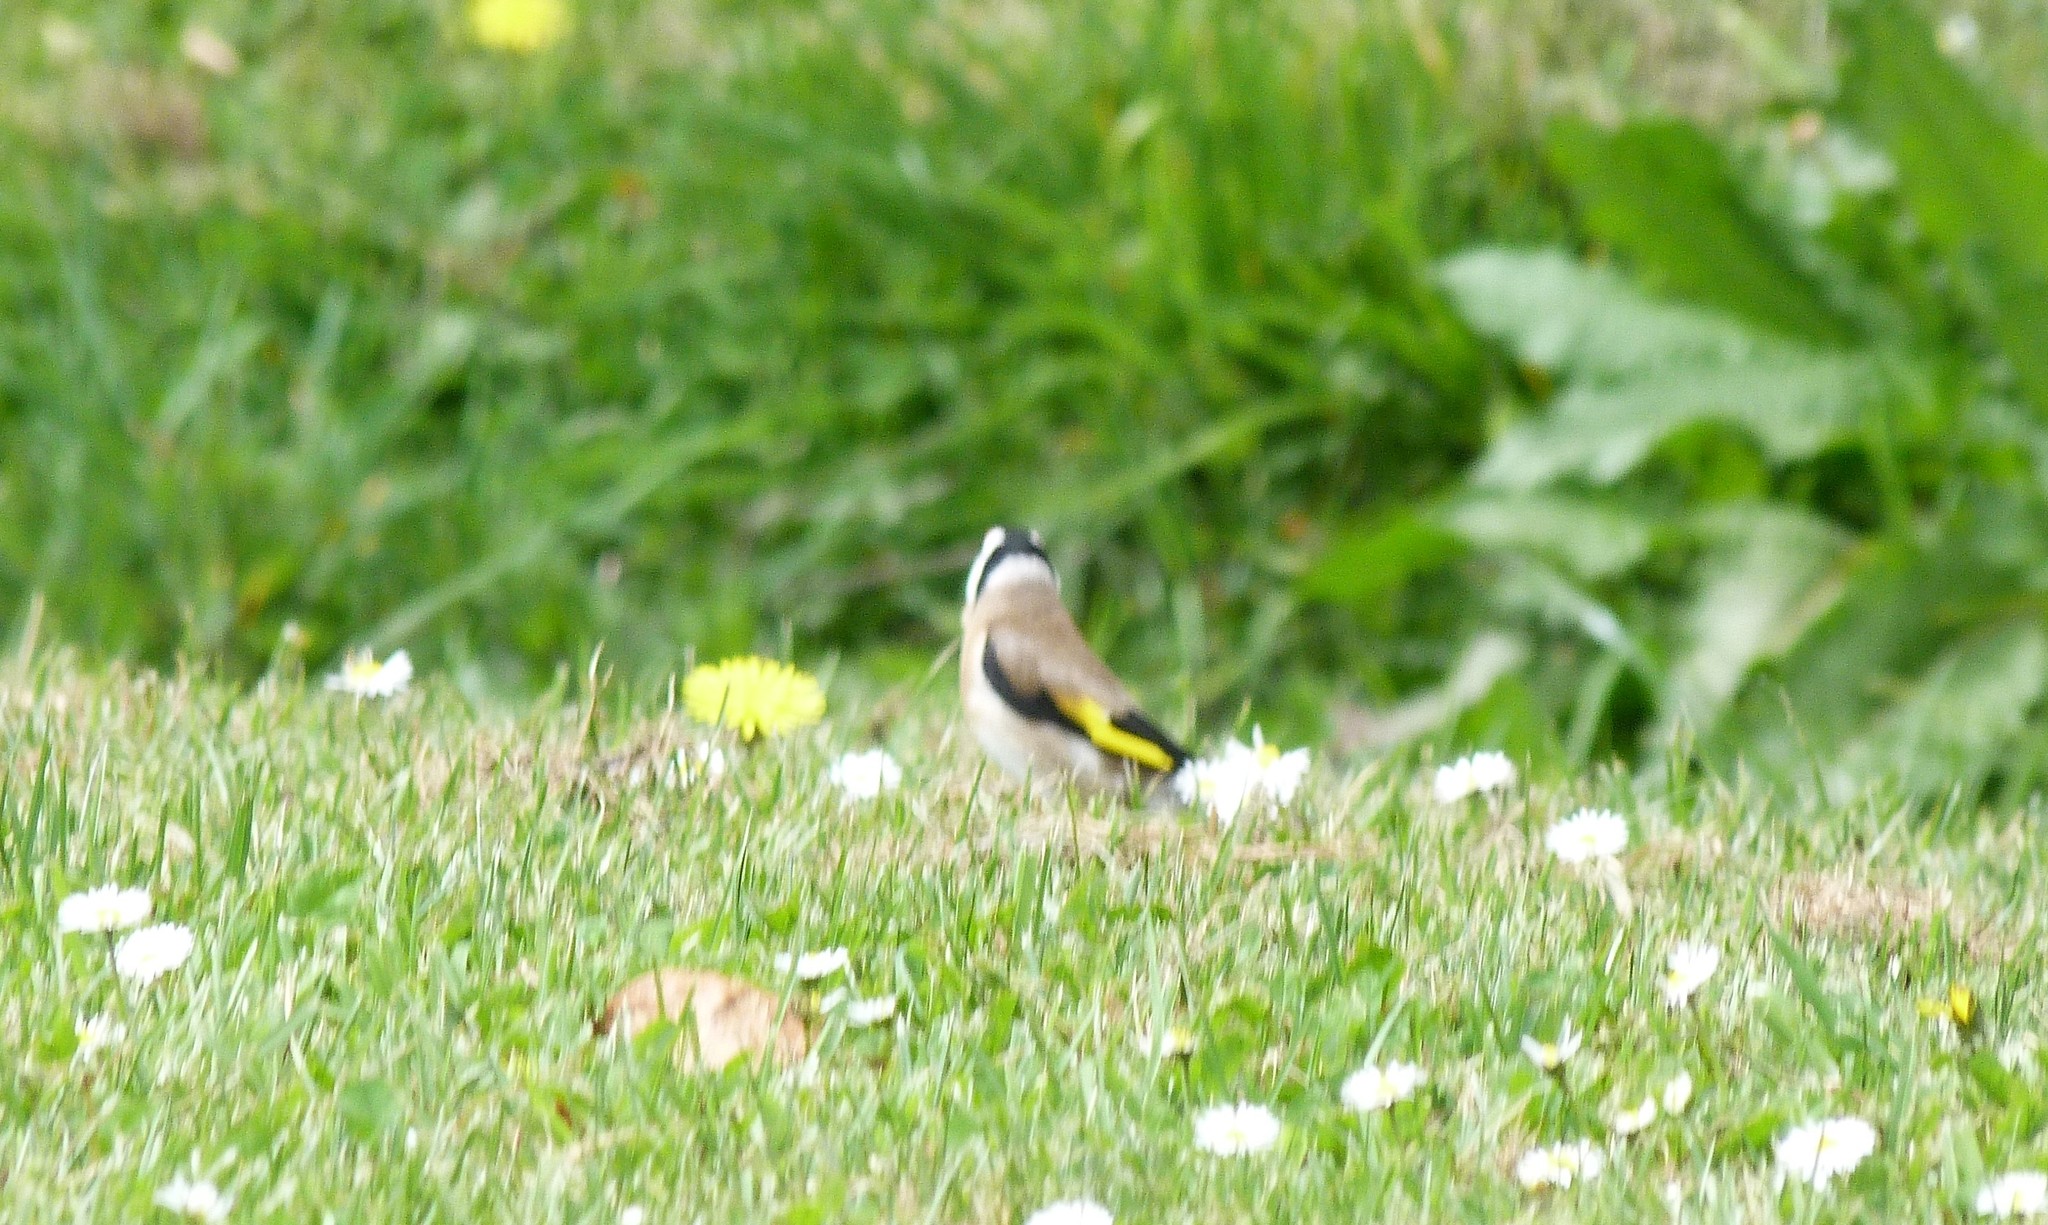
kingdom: Animalia
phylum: Chordata
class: Aves
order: Passeriformes
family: Fringillidae
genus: Carduelis
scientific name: Carduelis carduelis
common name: European goldfinch
